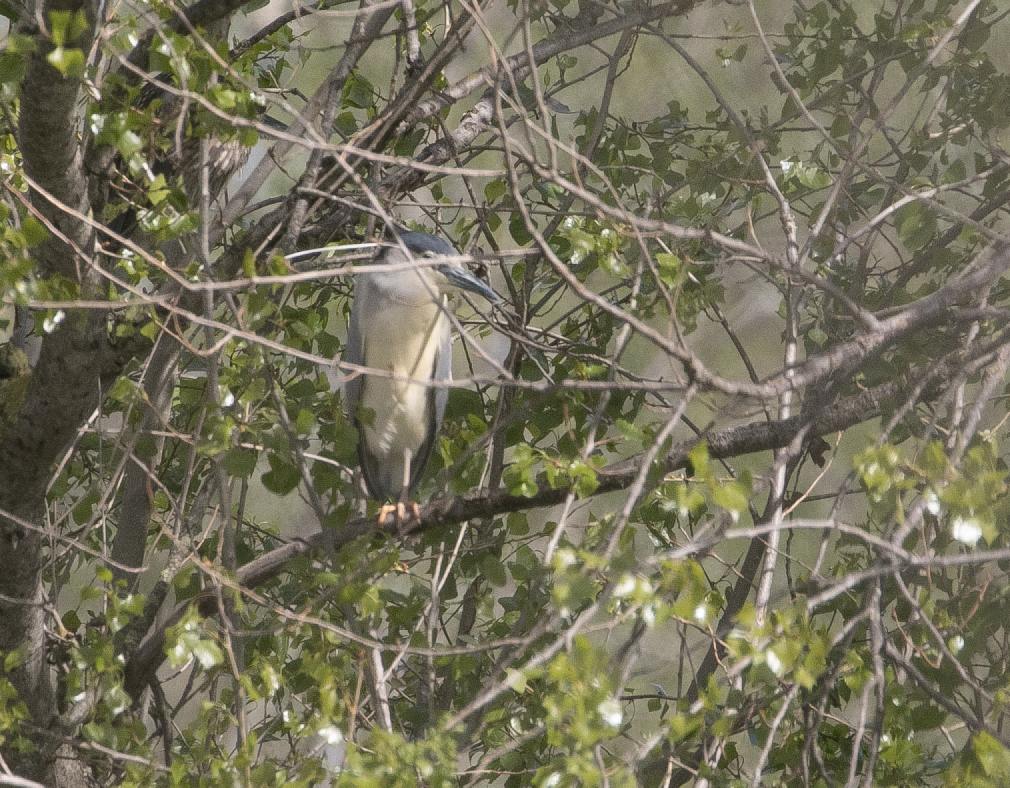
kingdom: Animalia
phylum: Chordata
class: Aves
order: Pelecaniformes
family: Ardeidae
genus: Nycticorax
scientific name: Nycticorax nycticorax
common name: Black-crowned night heron
